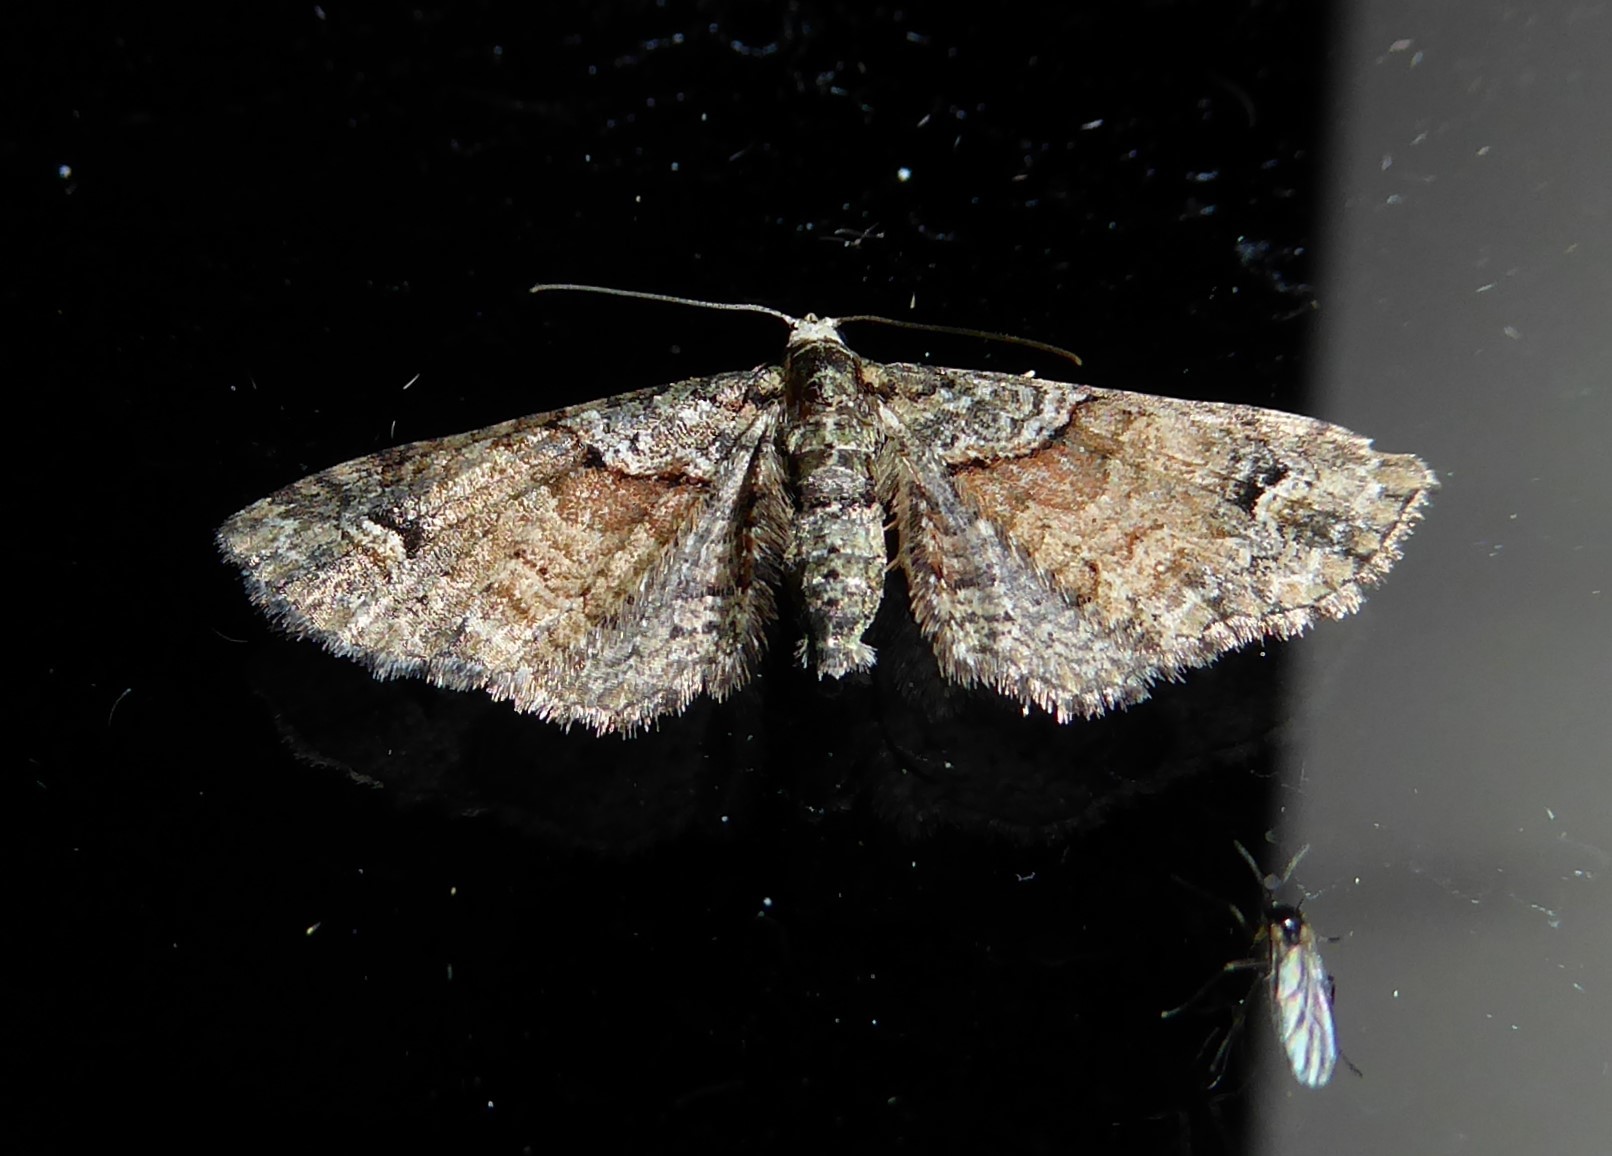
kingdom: Animalia
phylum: Arthropoda
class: Insecta
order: Lepidoptera
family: Geometridae
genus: Idaea
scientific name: Idaea mutanda
